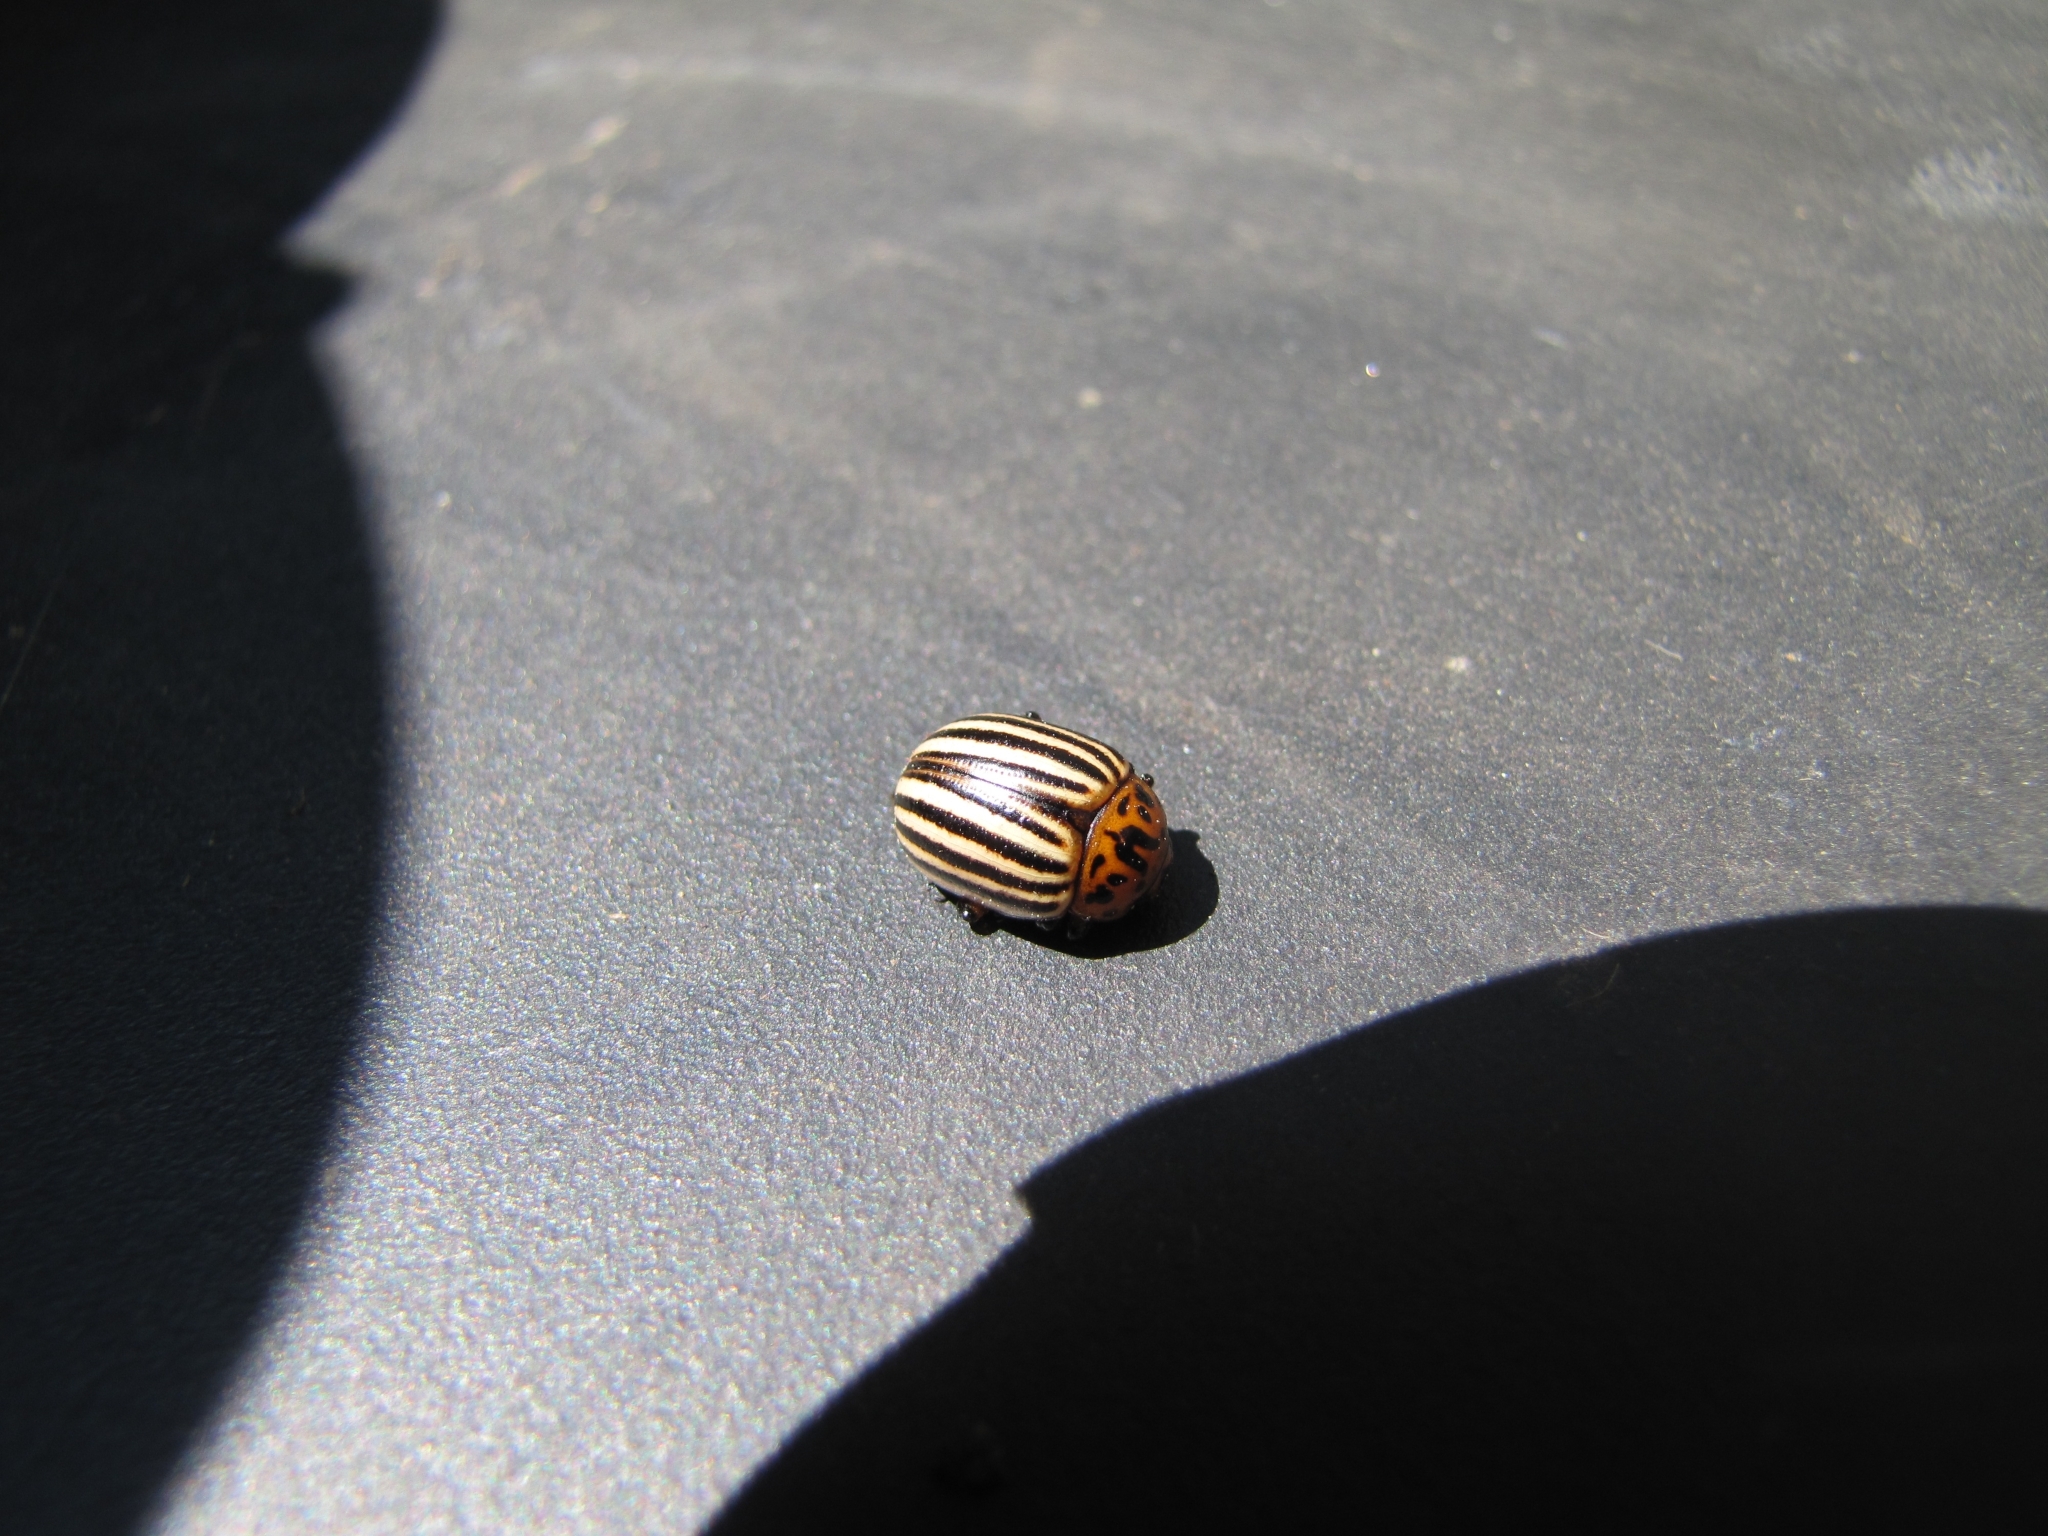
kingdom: Animalia
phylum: Arthropoda
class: Insecta
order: Coleoptera
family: Chrysomelidae
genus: Leptinotarsa
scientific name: Leptinotarsa decemlineata
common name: Colorado potato beetle
